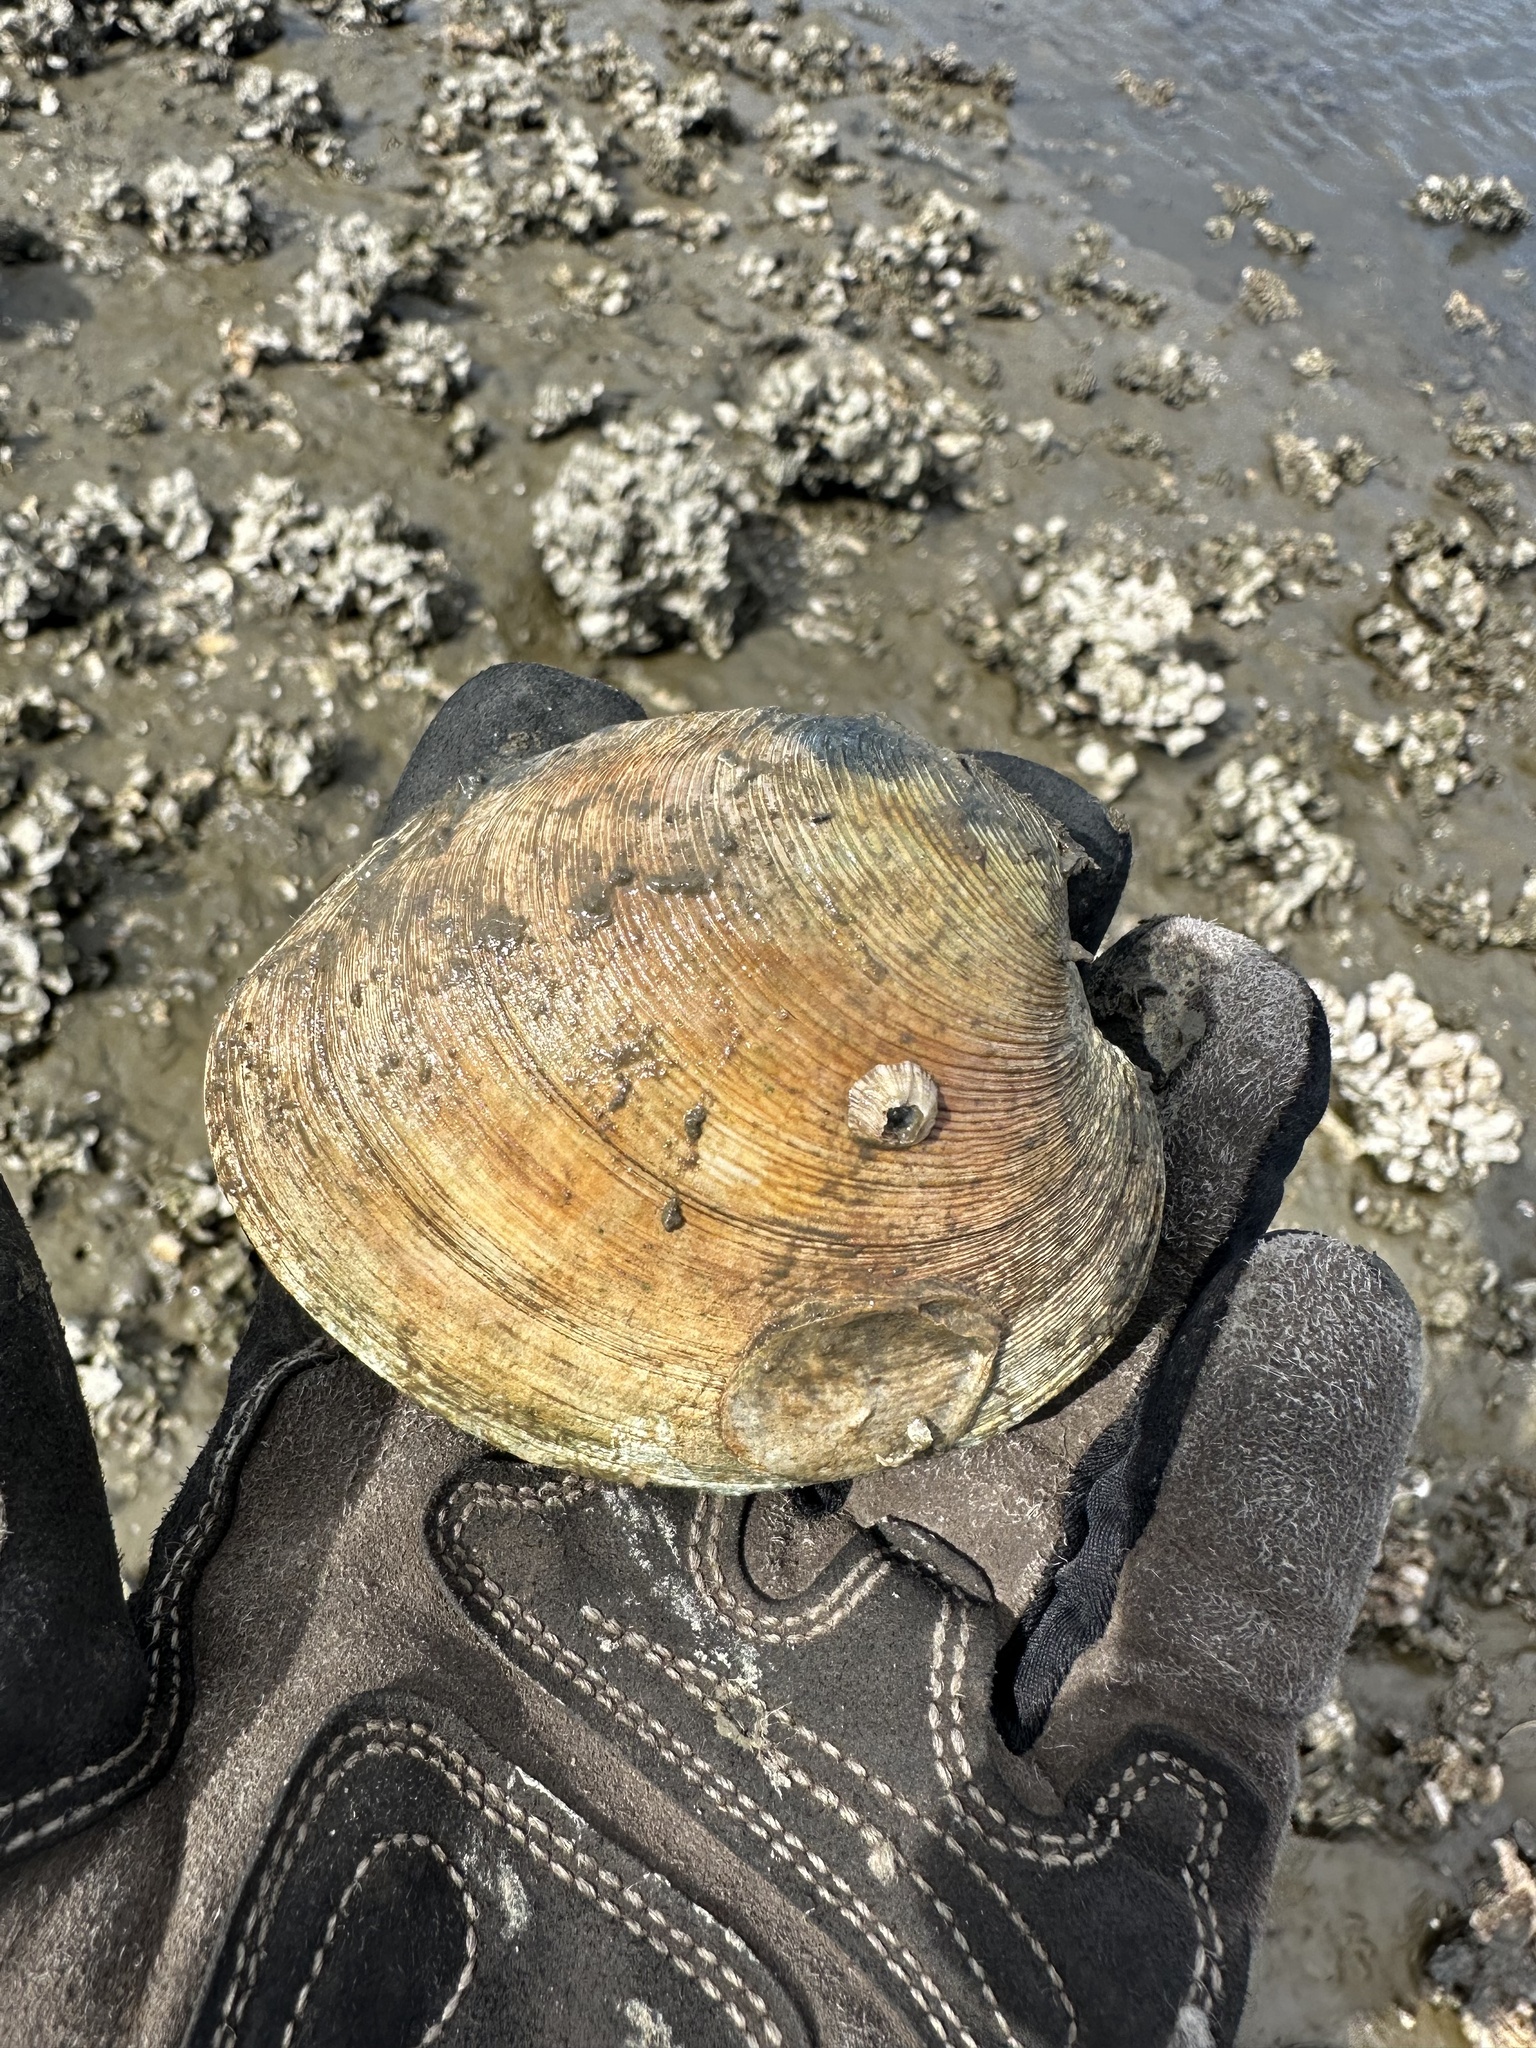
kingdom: Animalia
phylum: Mollusca
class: Bivalvia
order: Venerida
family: Veneridae
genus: Mercenaria
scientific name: Mercenaria mercenaria
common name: American hard-shelled clam
